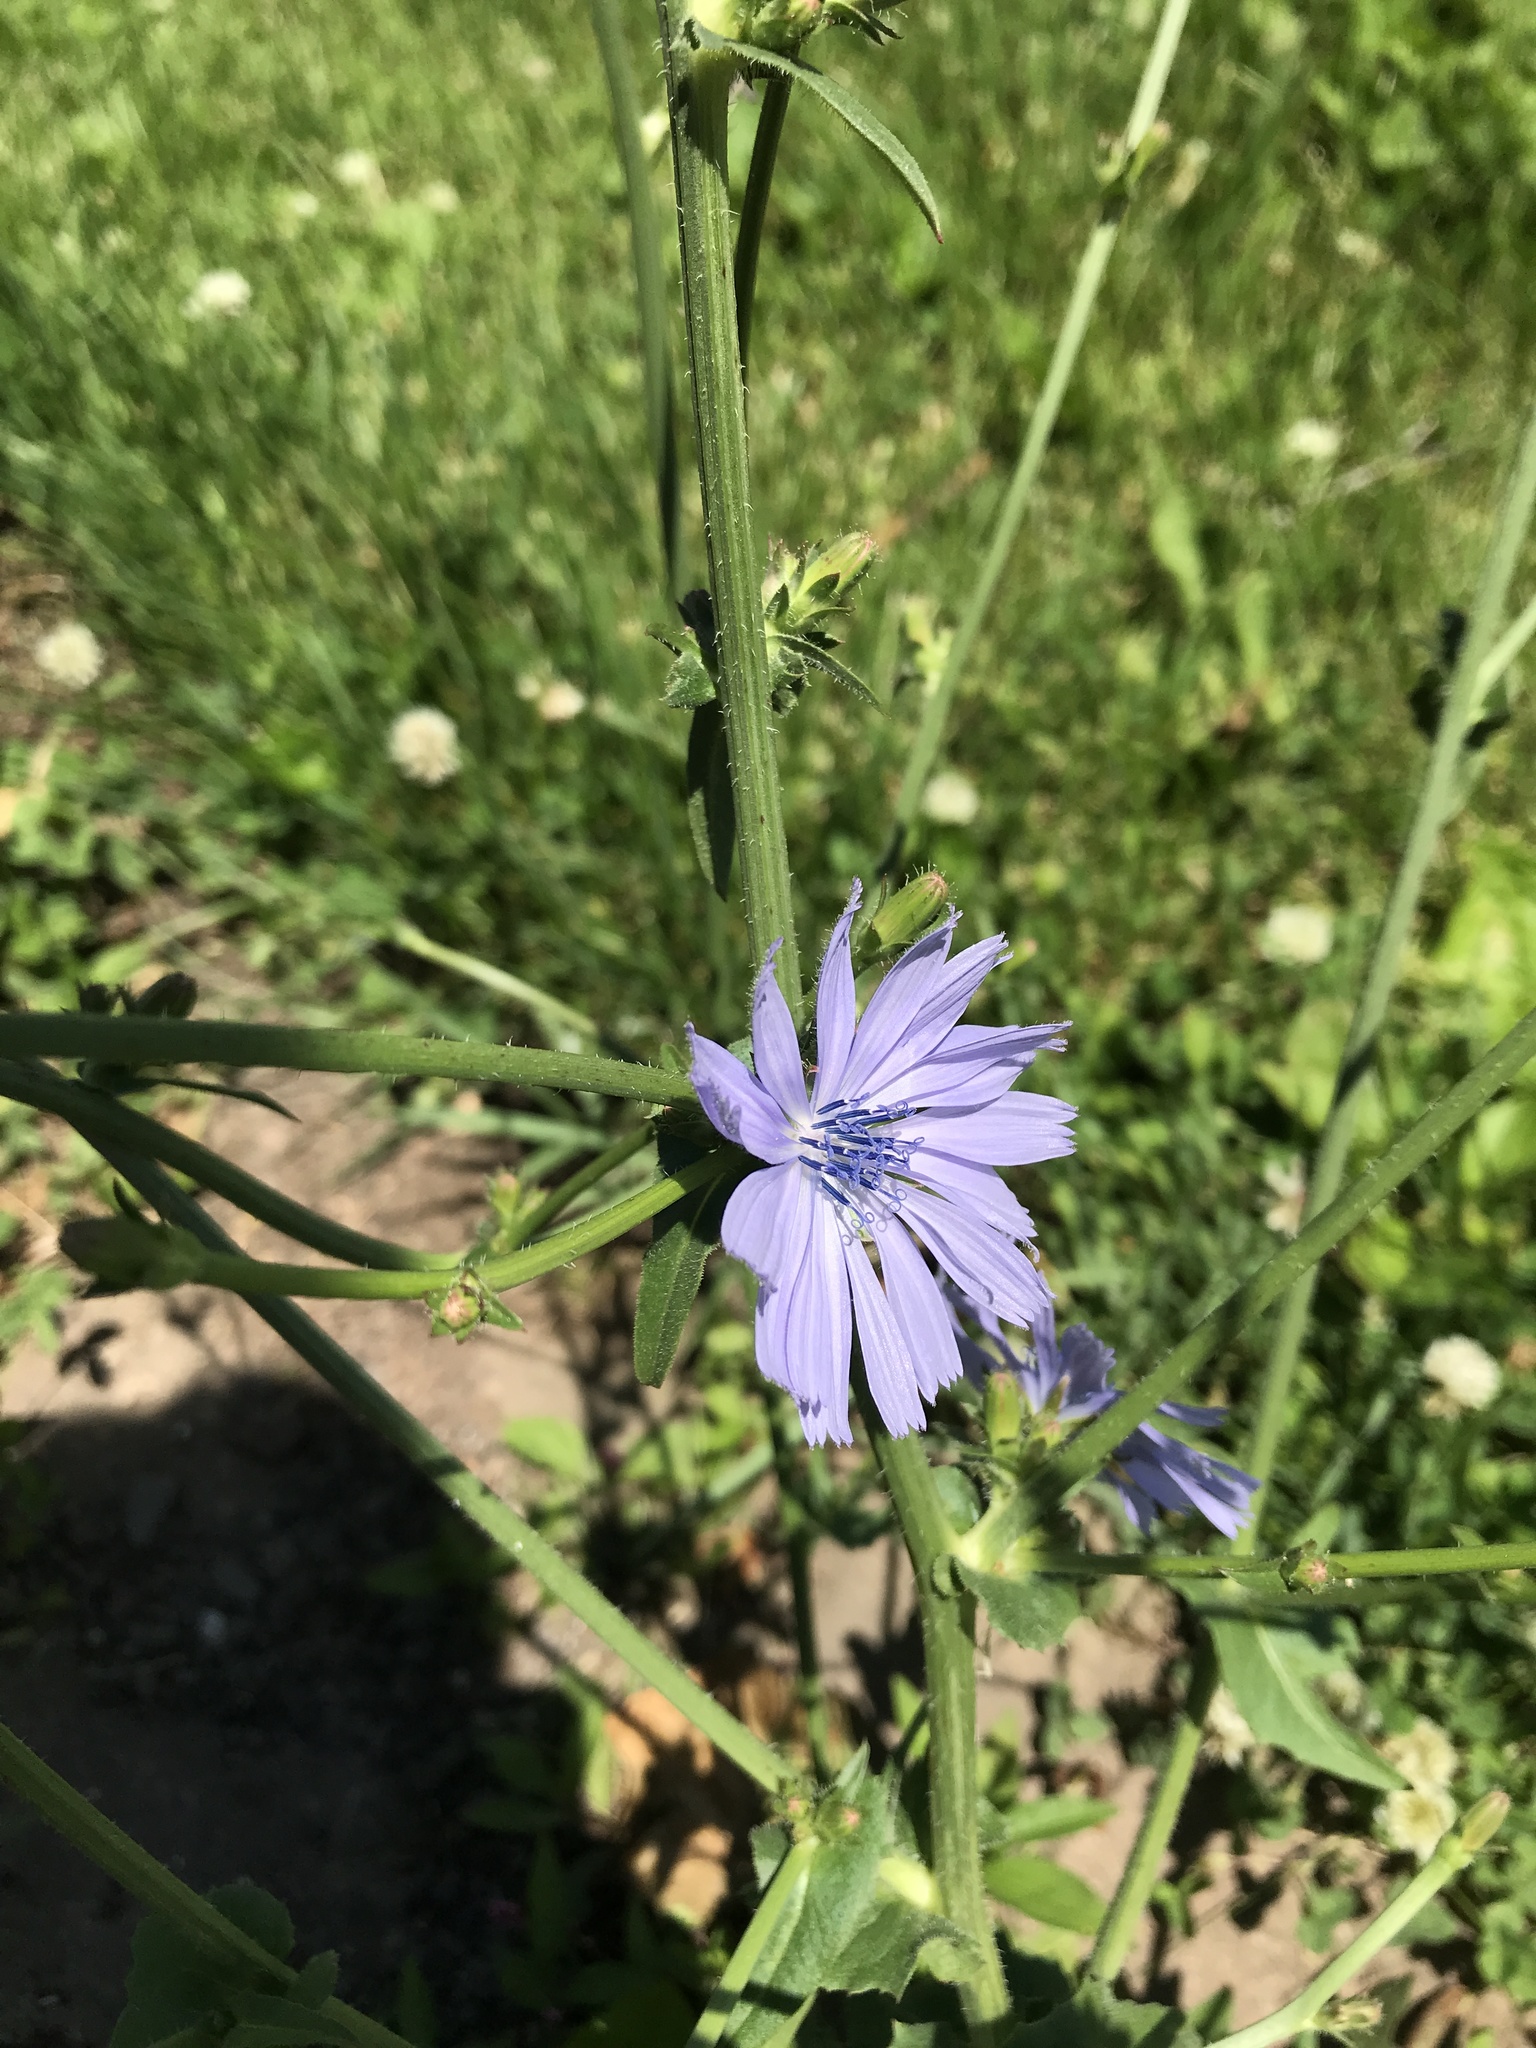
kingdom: Plantae
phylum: Tracheophyta
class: Magnoliopsida
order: Asterales
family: Asteraceae
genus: Cichorium
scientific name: Cichorium intybus
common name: Chicory
